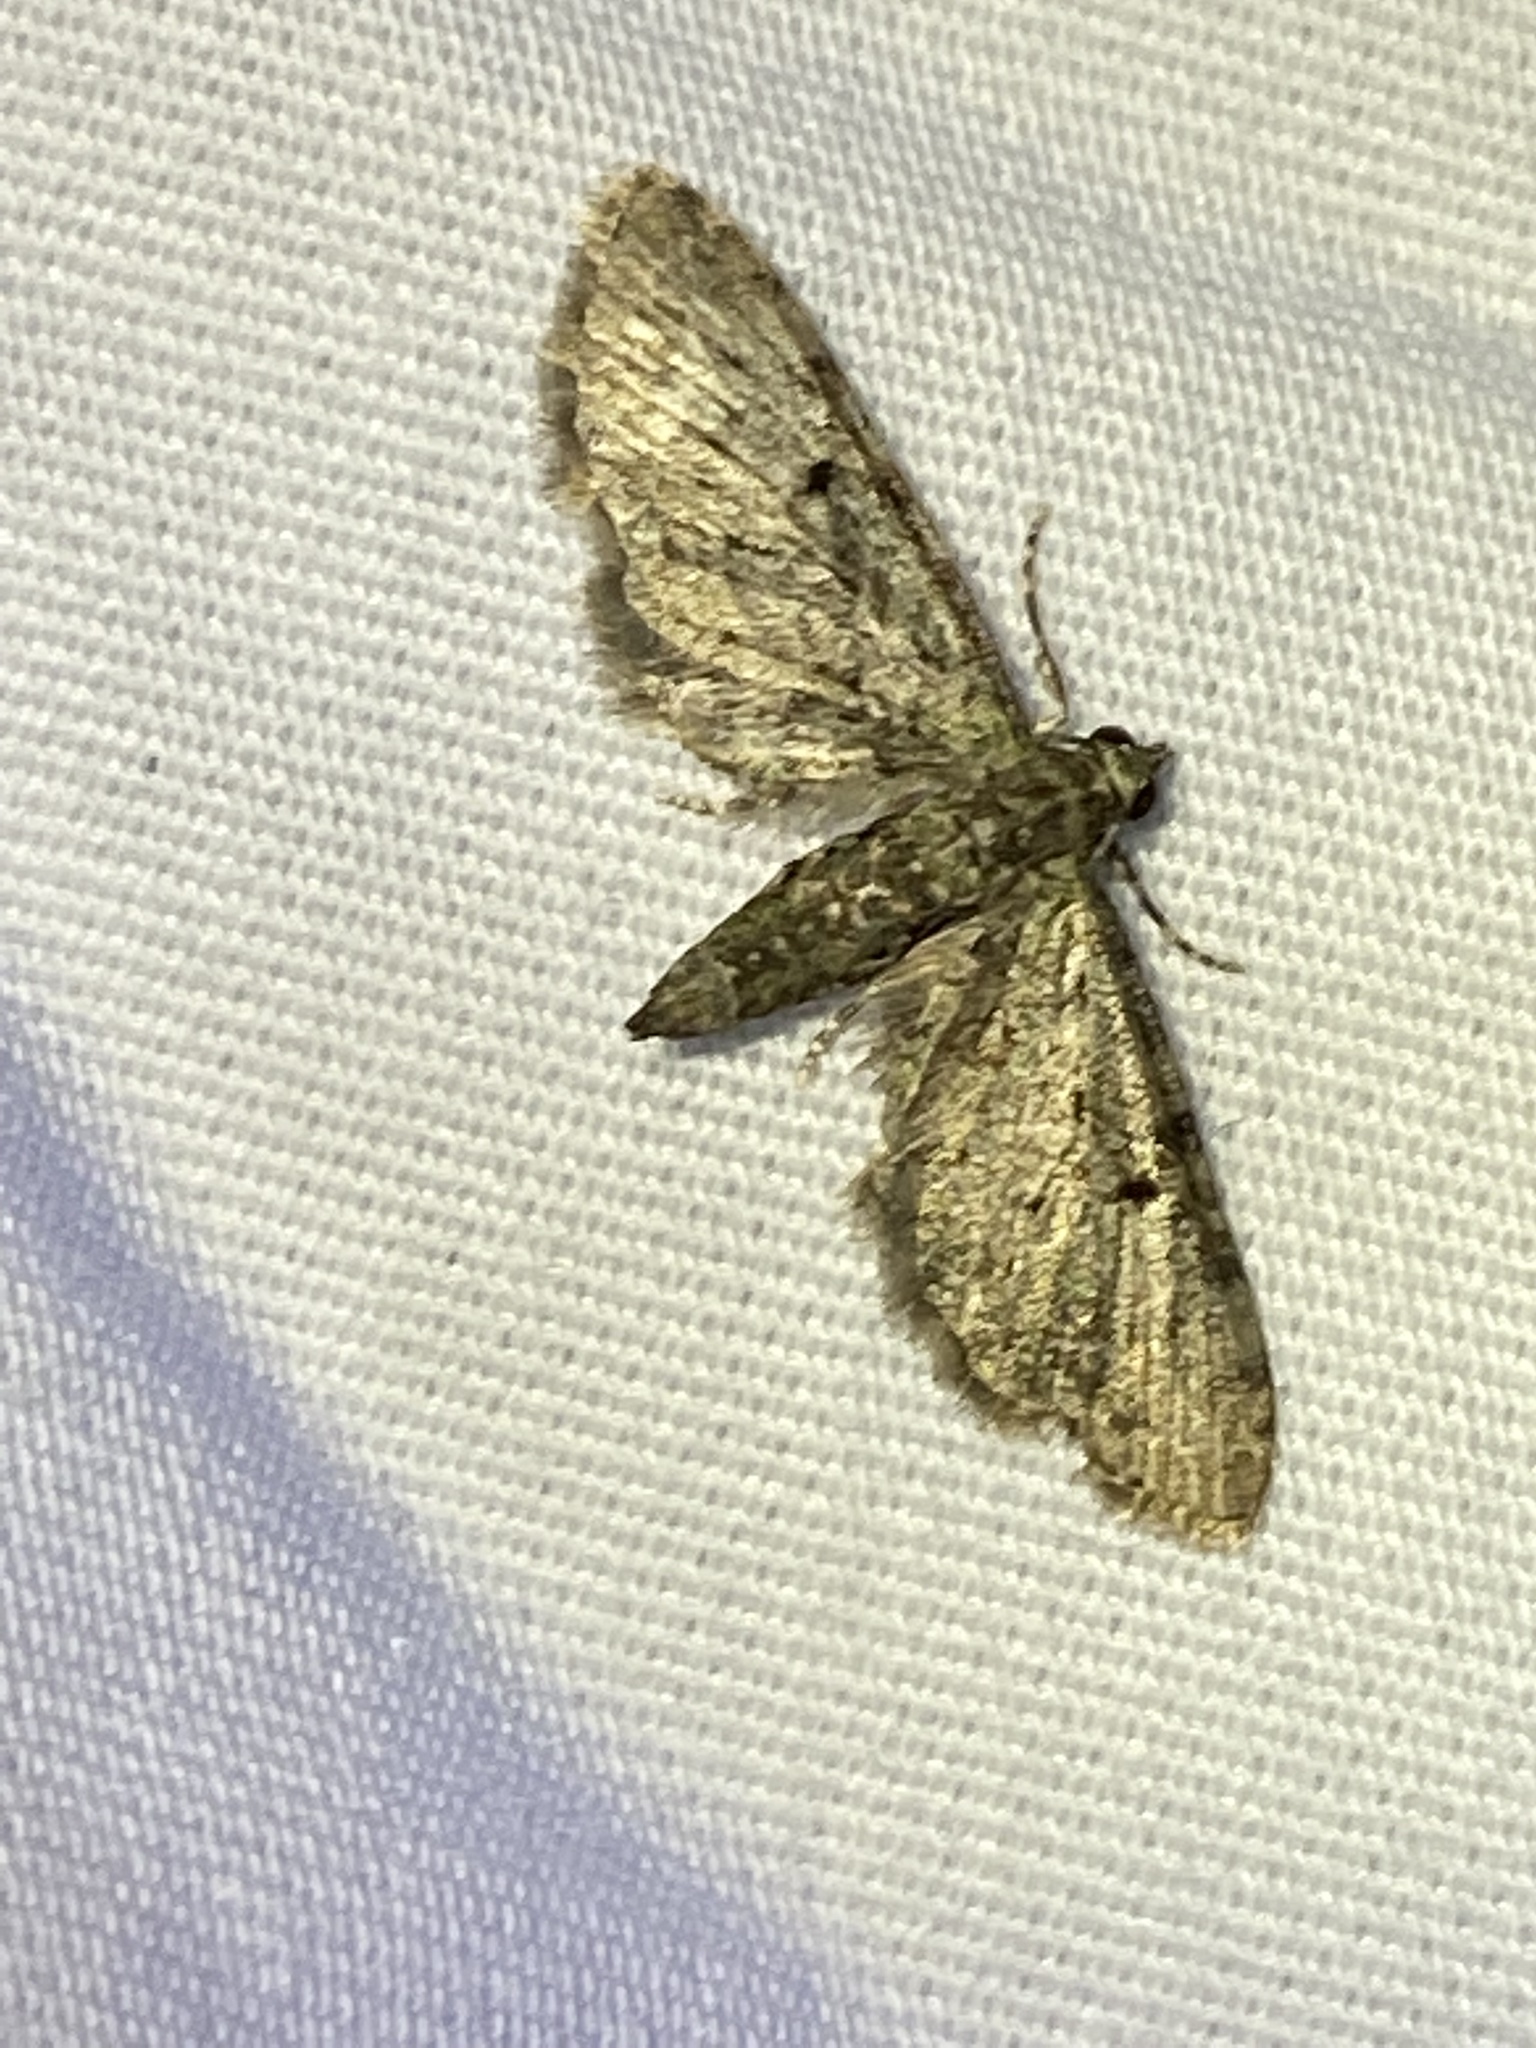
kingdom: Animalia
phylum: Arthropoda
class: Insecta
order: Lepidoptera
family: Geometridae
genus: Eupithecia
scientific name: Eupithecia miserulata
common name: Common eupithecia
